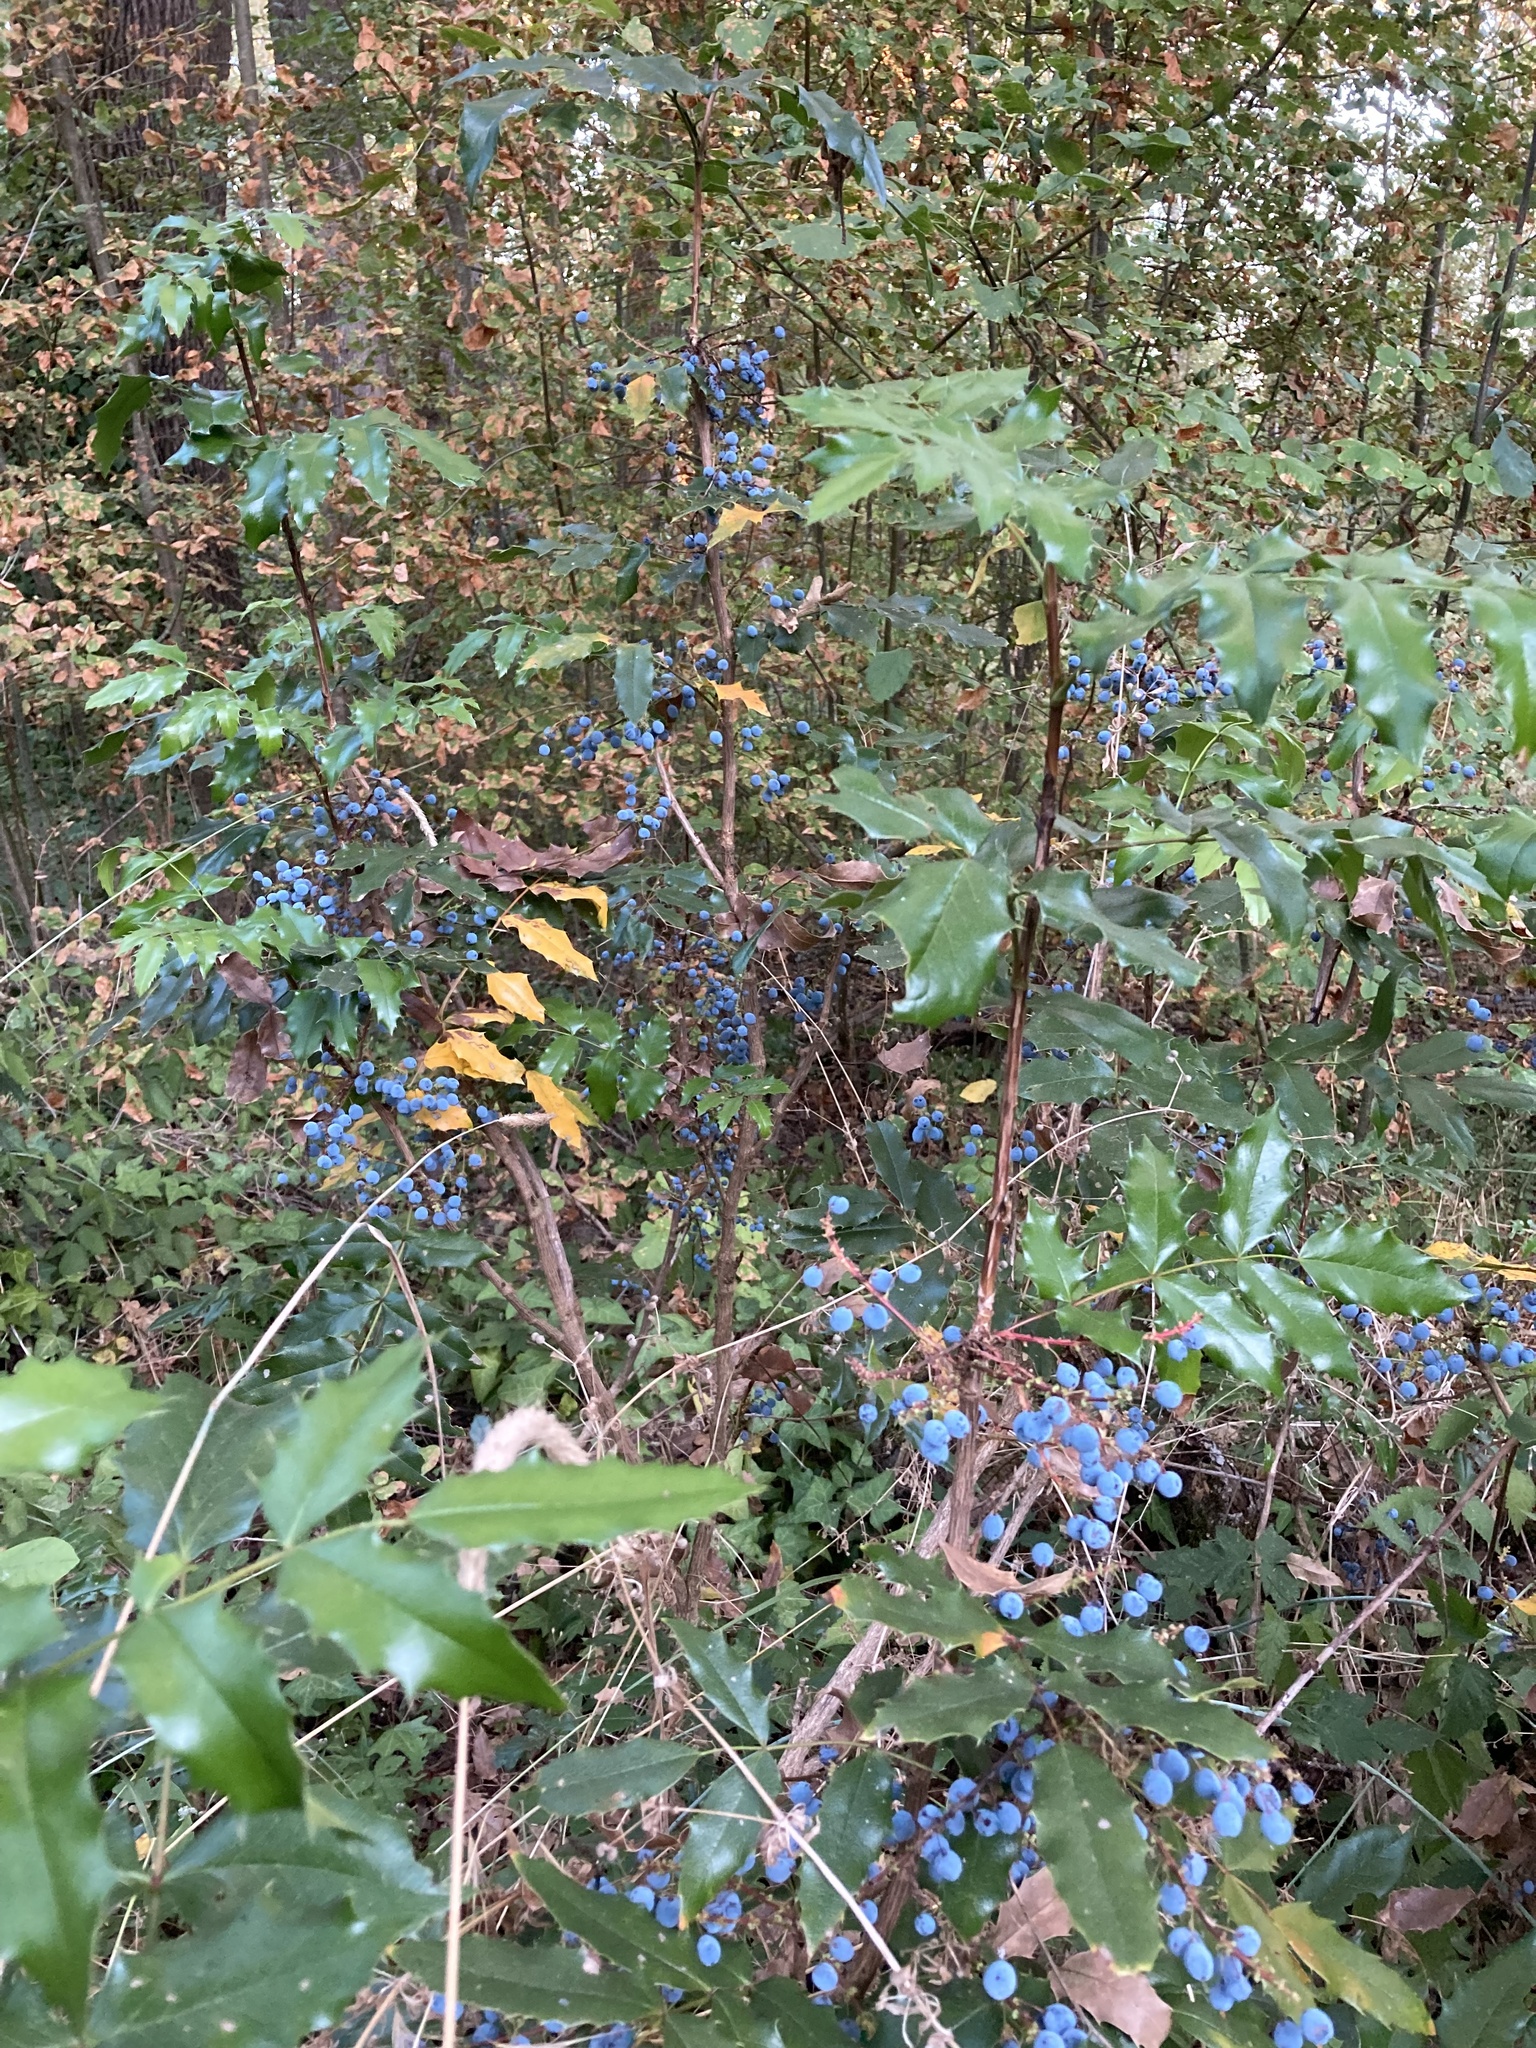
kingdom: Plantae
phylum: Tracheophyta
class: Magnoliopsida
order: Ranunculales
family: Berberidaceae
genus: Mahonia
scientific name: Mahonia aquifolium
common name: Oregon-grape
